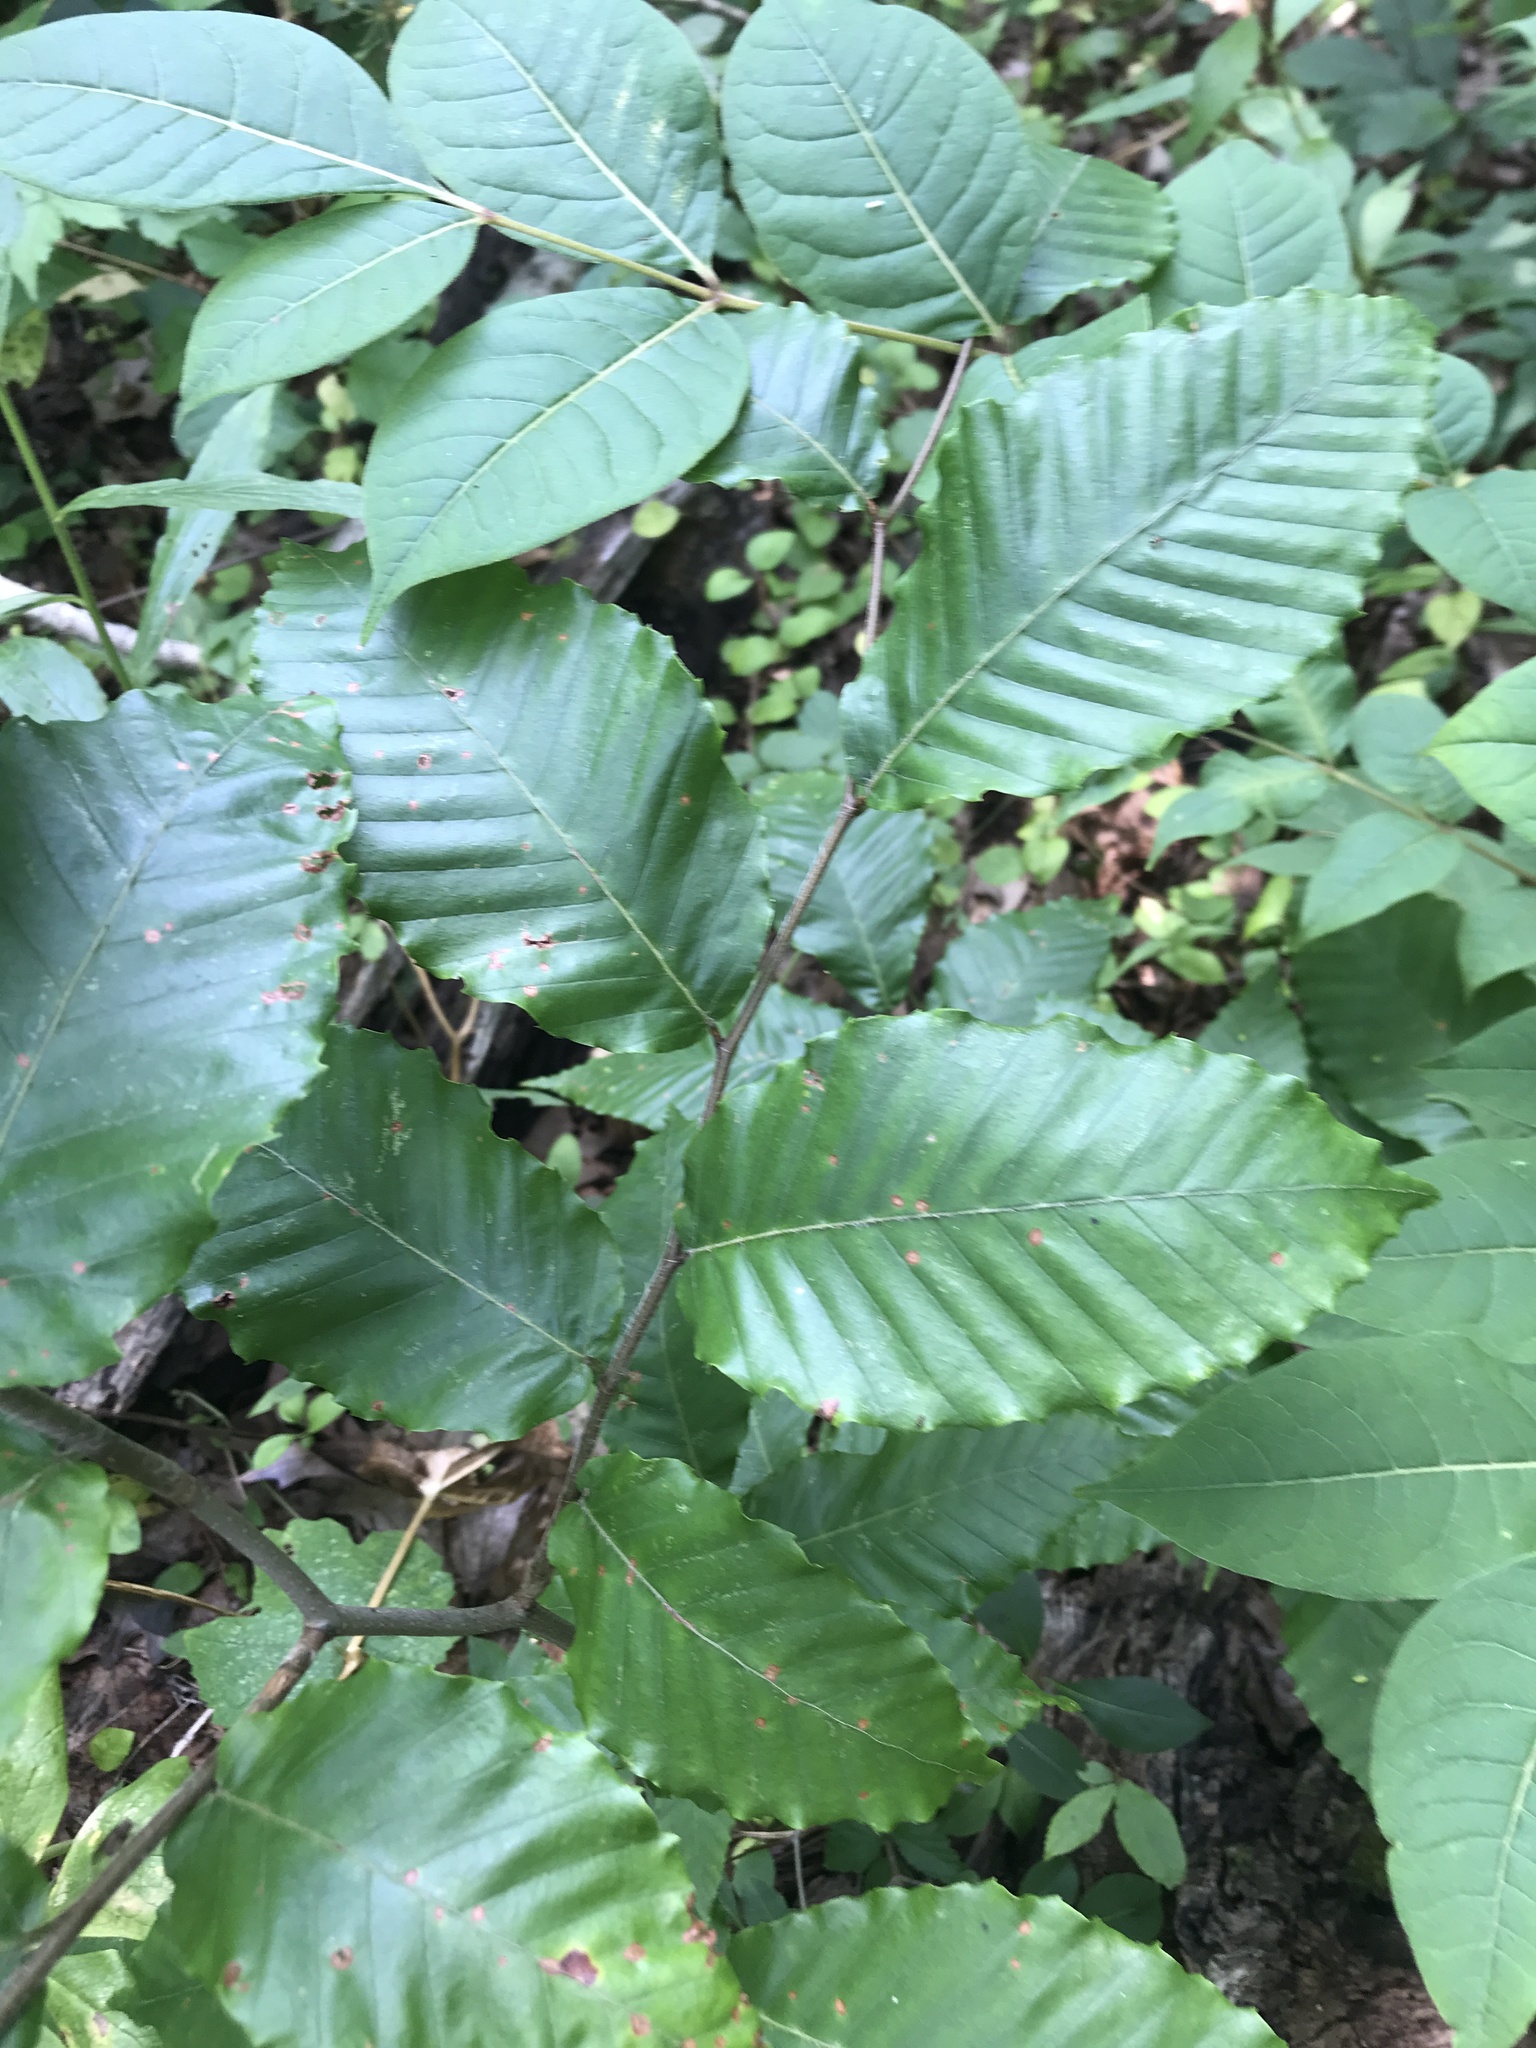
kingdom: Plantae
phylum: Tracheophyta
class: Magnoliopsida
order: Fagales
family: Fagaceae
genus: Fagus
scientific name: Fagus grandifolia
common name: American beech
